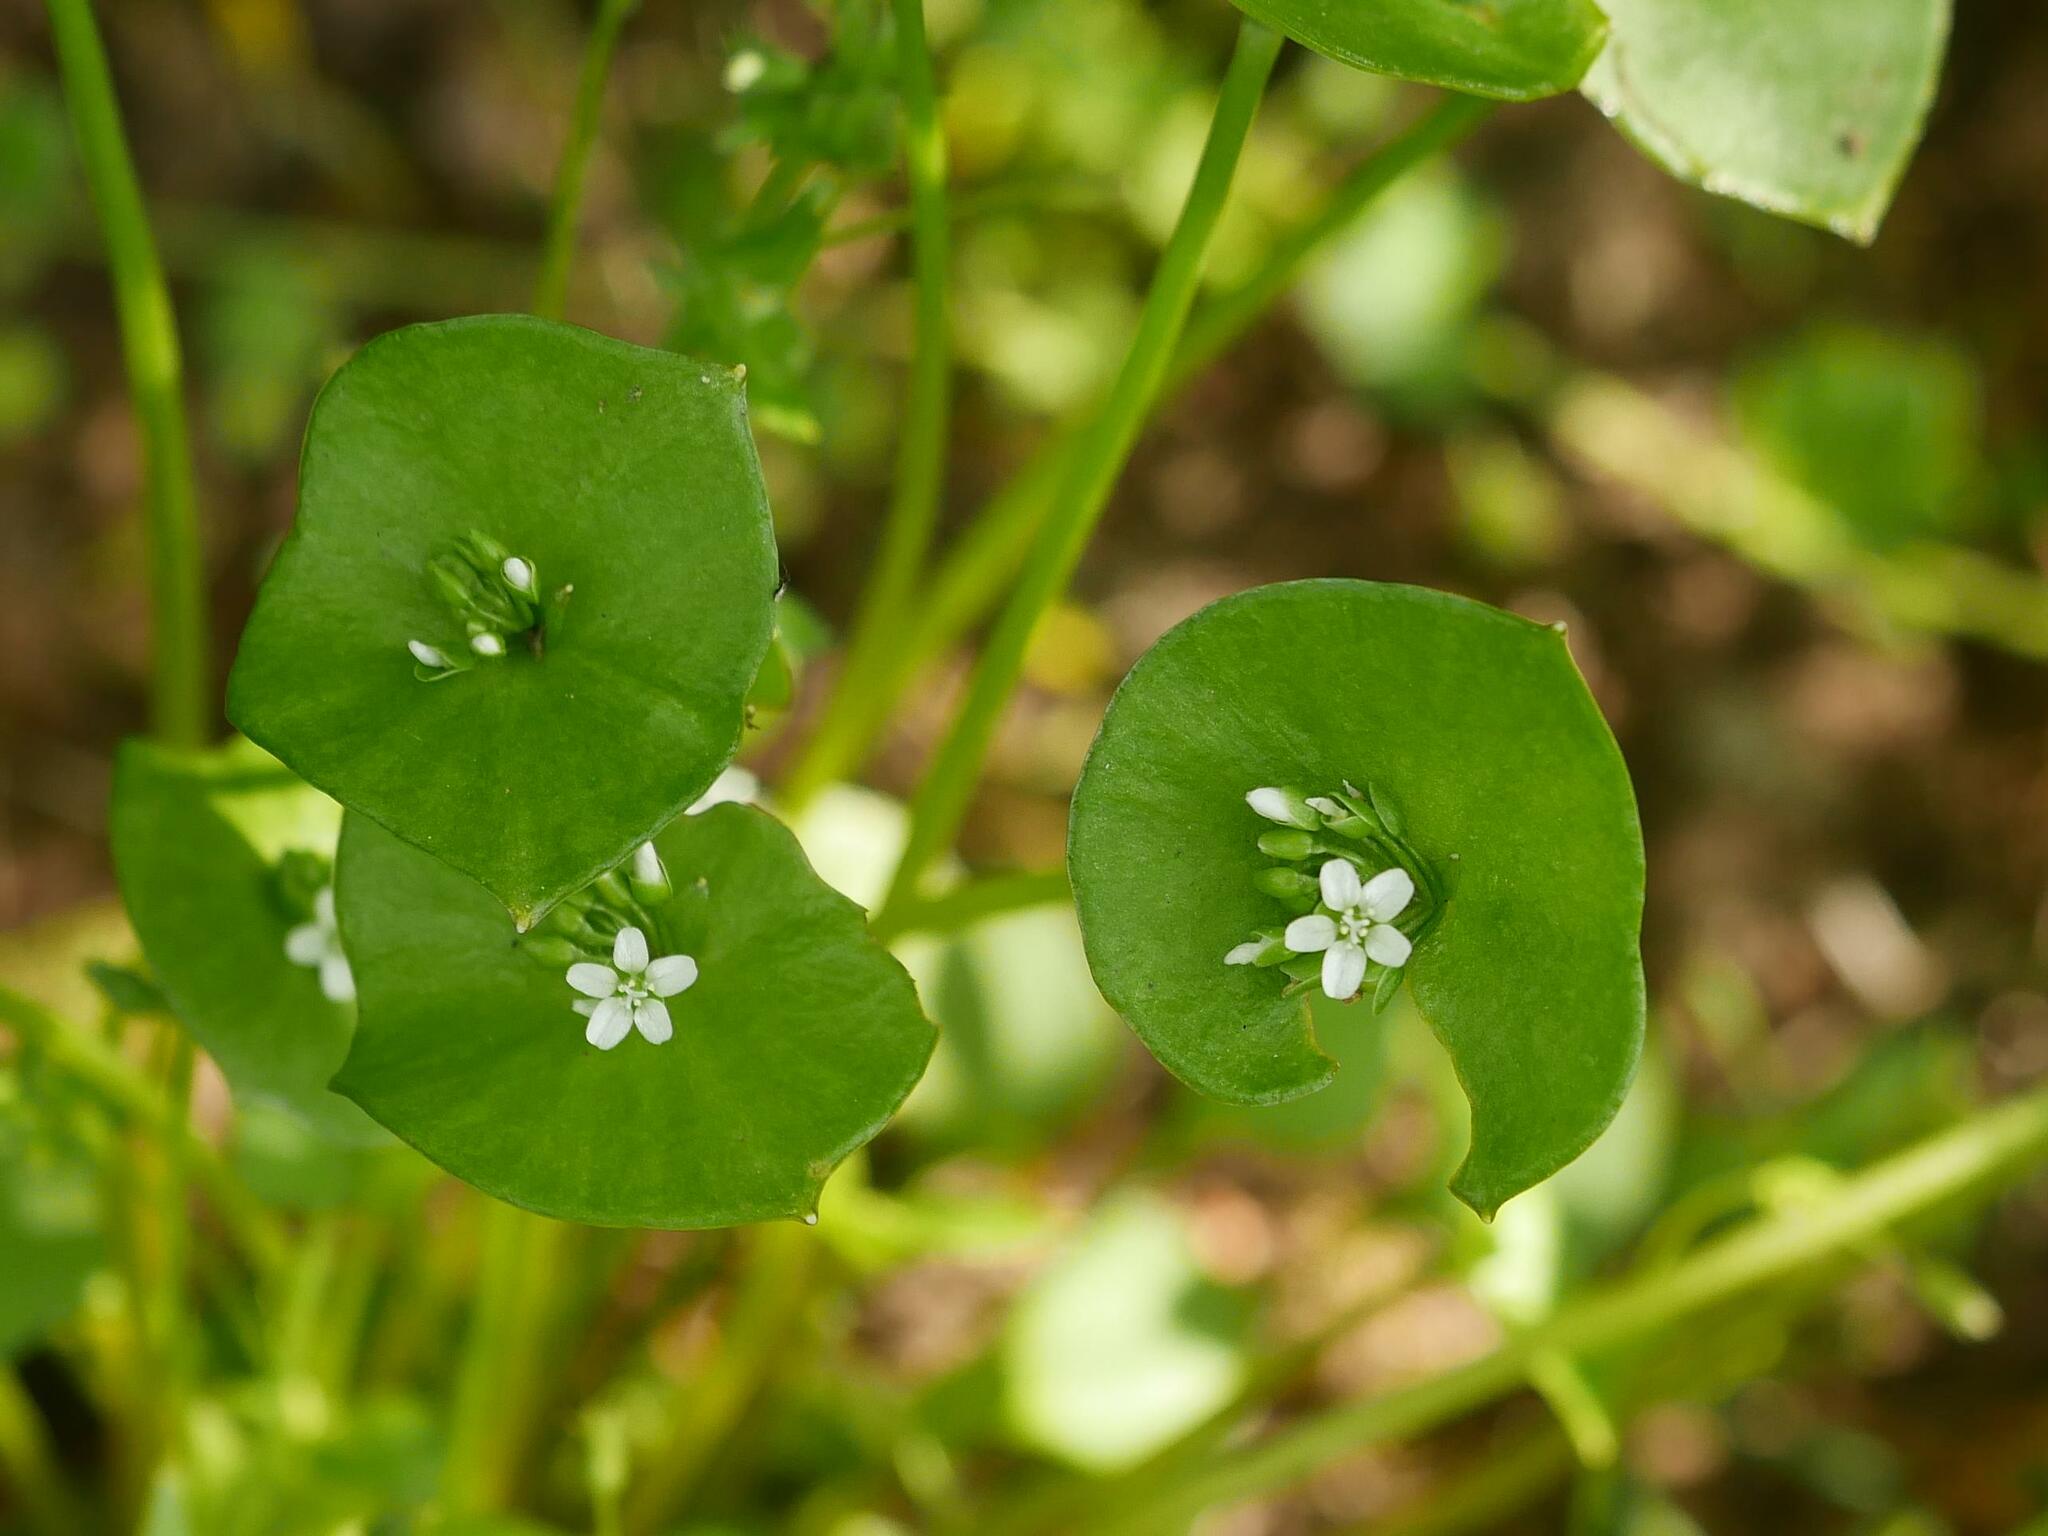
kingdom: Plantae
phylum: Tracheophyta
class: Magnoliopsida
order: Caryophyllales
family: Montiaceae
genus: Claytonia
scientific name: Claytonia perfoliata
